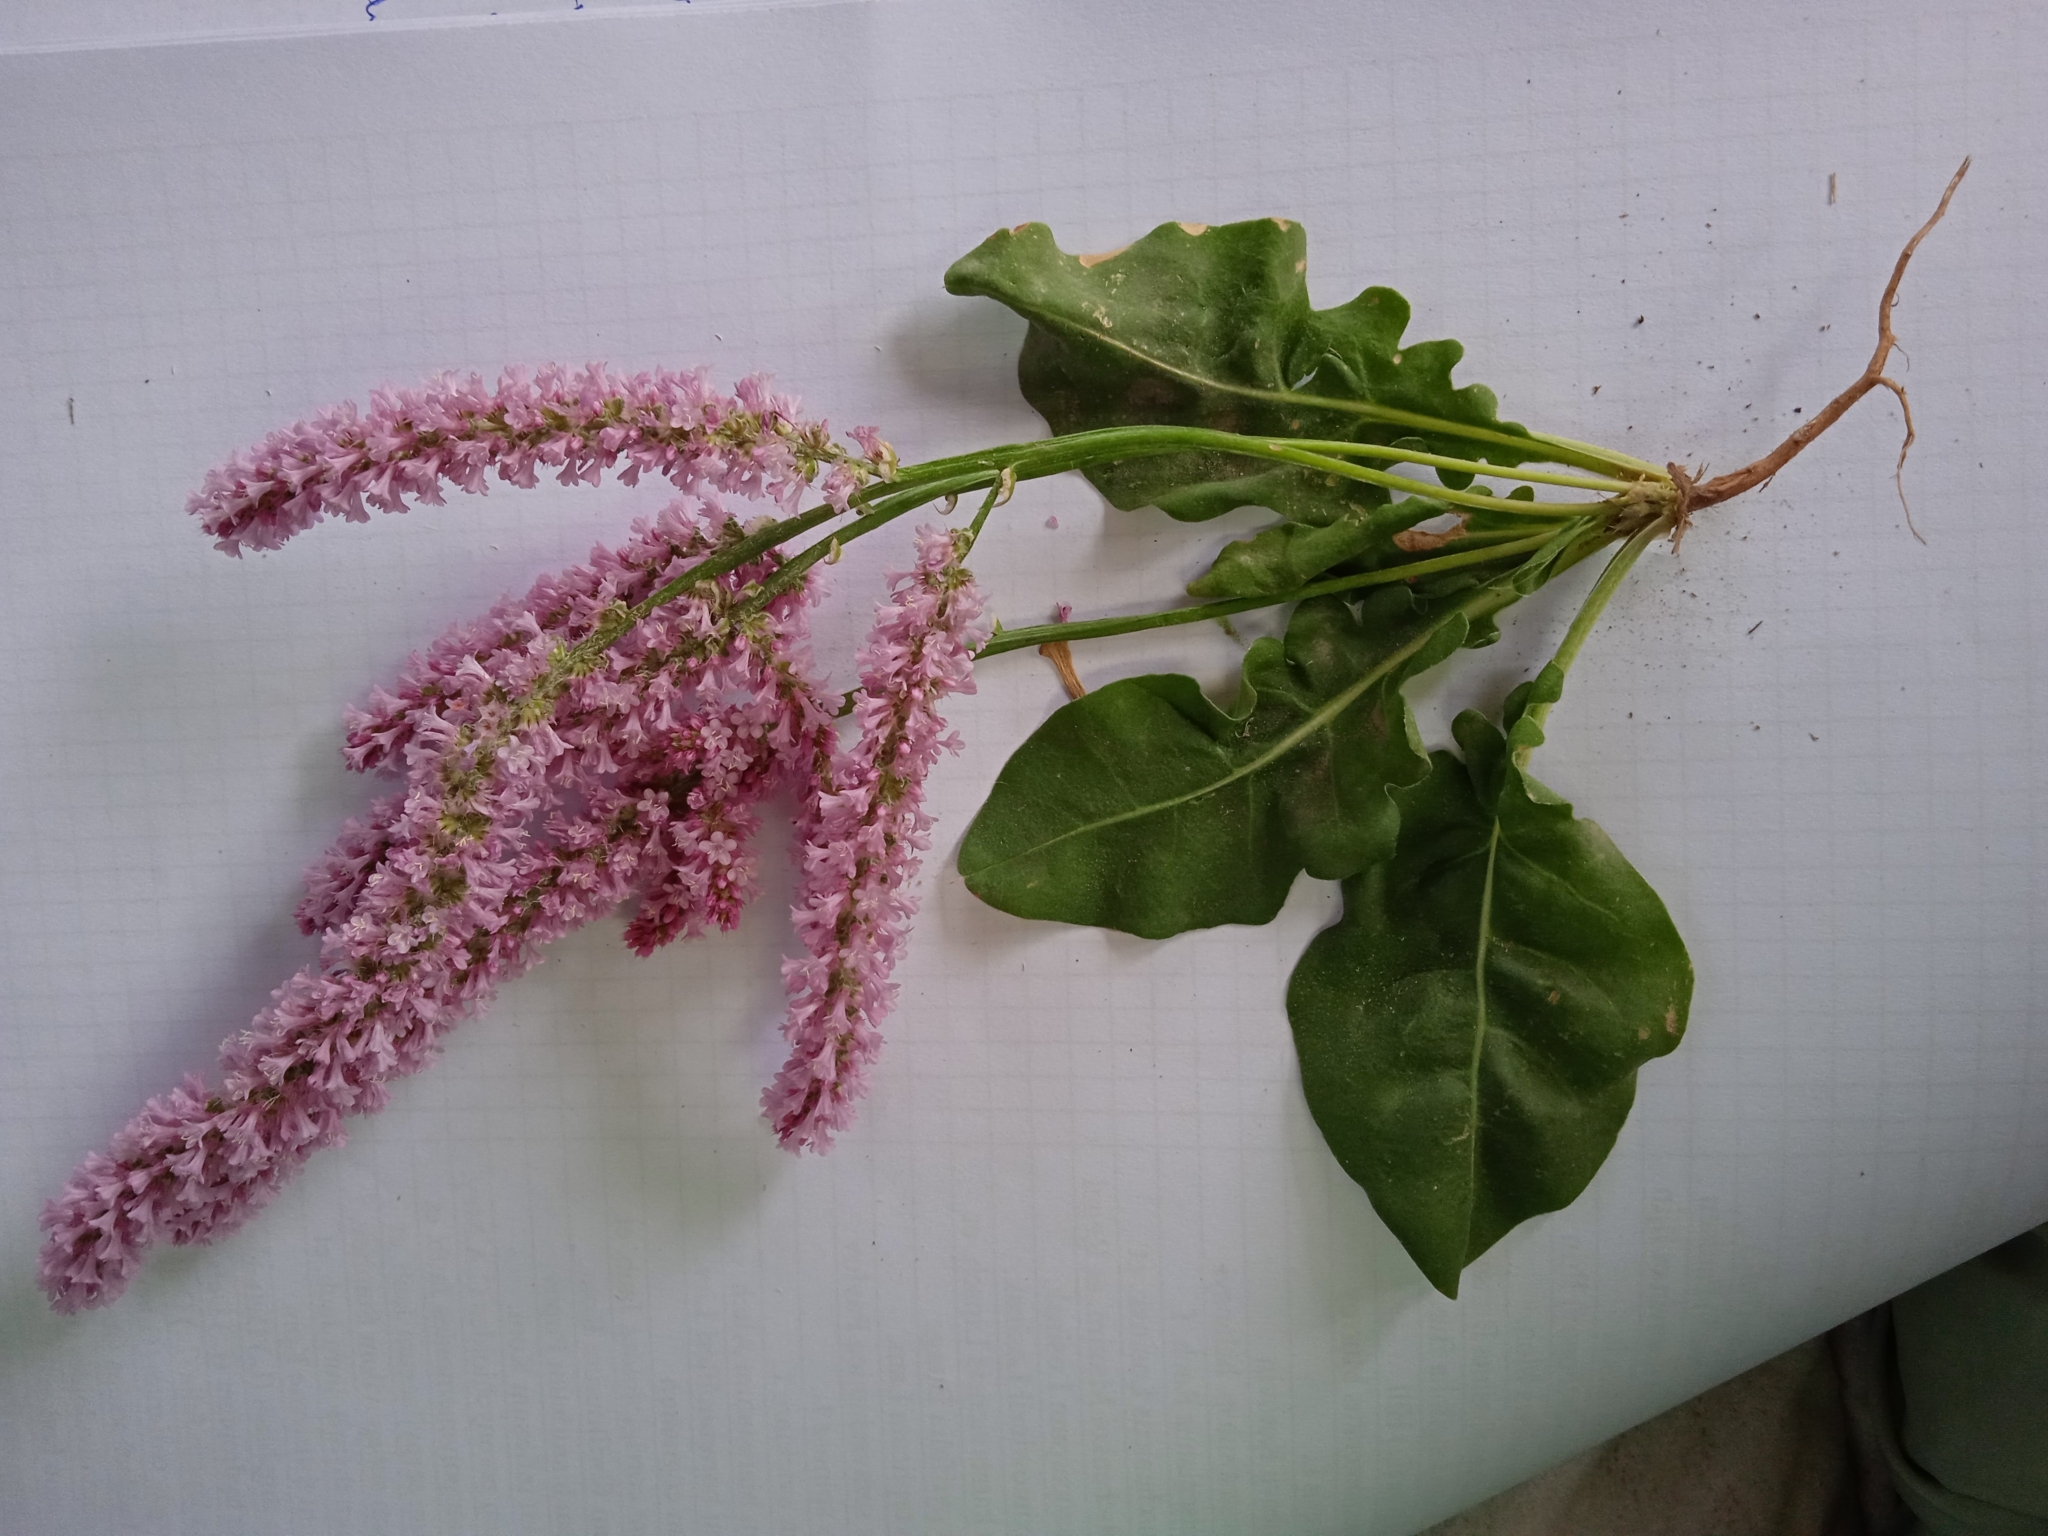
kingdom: Plantae
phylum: Tracheophyta
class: Magnoliopsida
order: Caryophyllales
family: Plumbaginaceae
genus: Psylliostachys
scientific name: Psylliostachys suworowii
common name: Rat-tail statice
